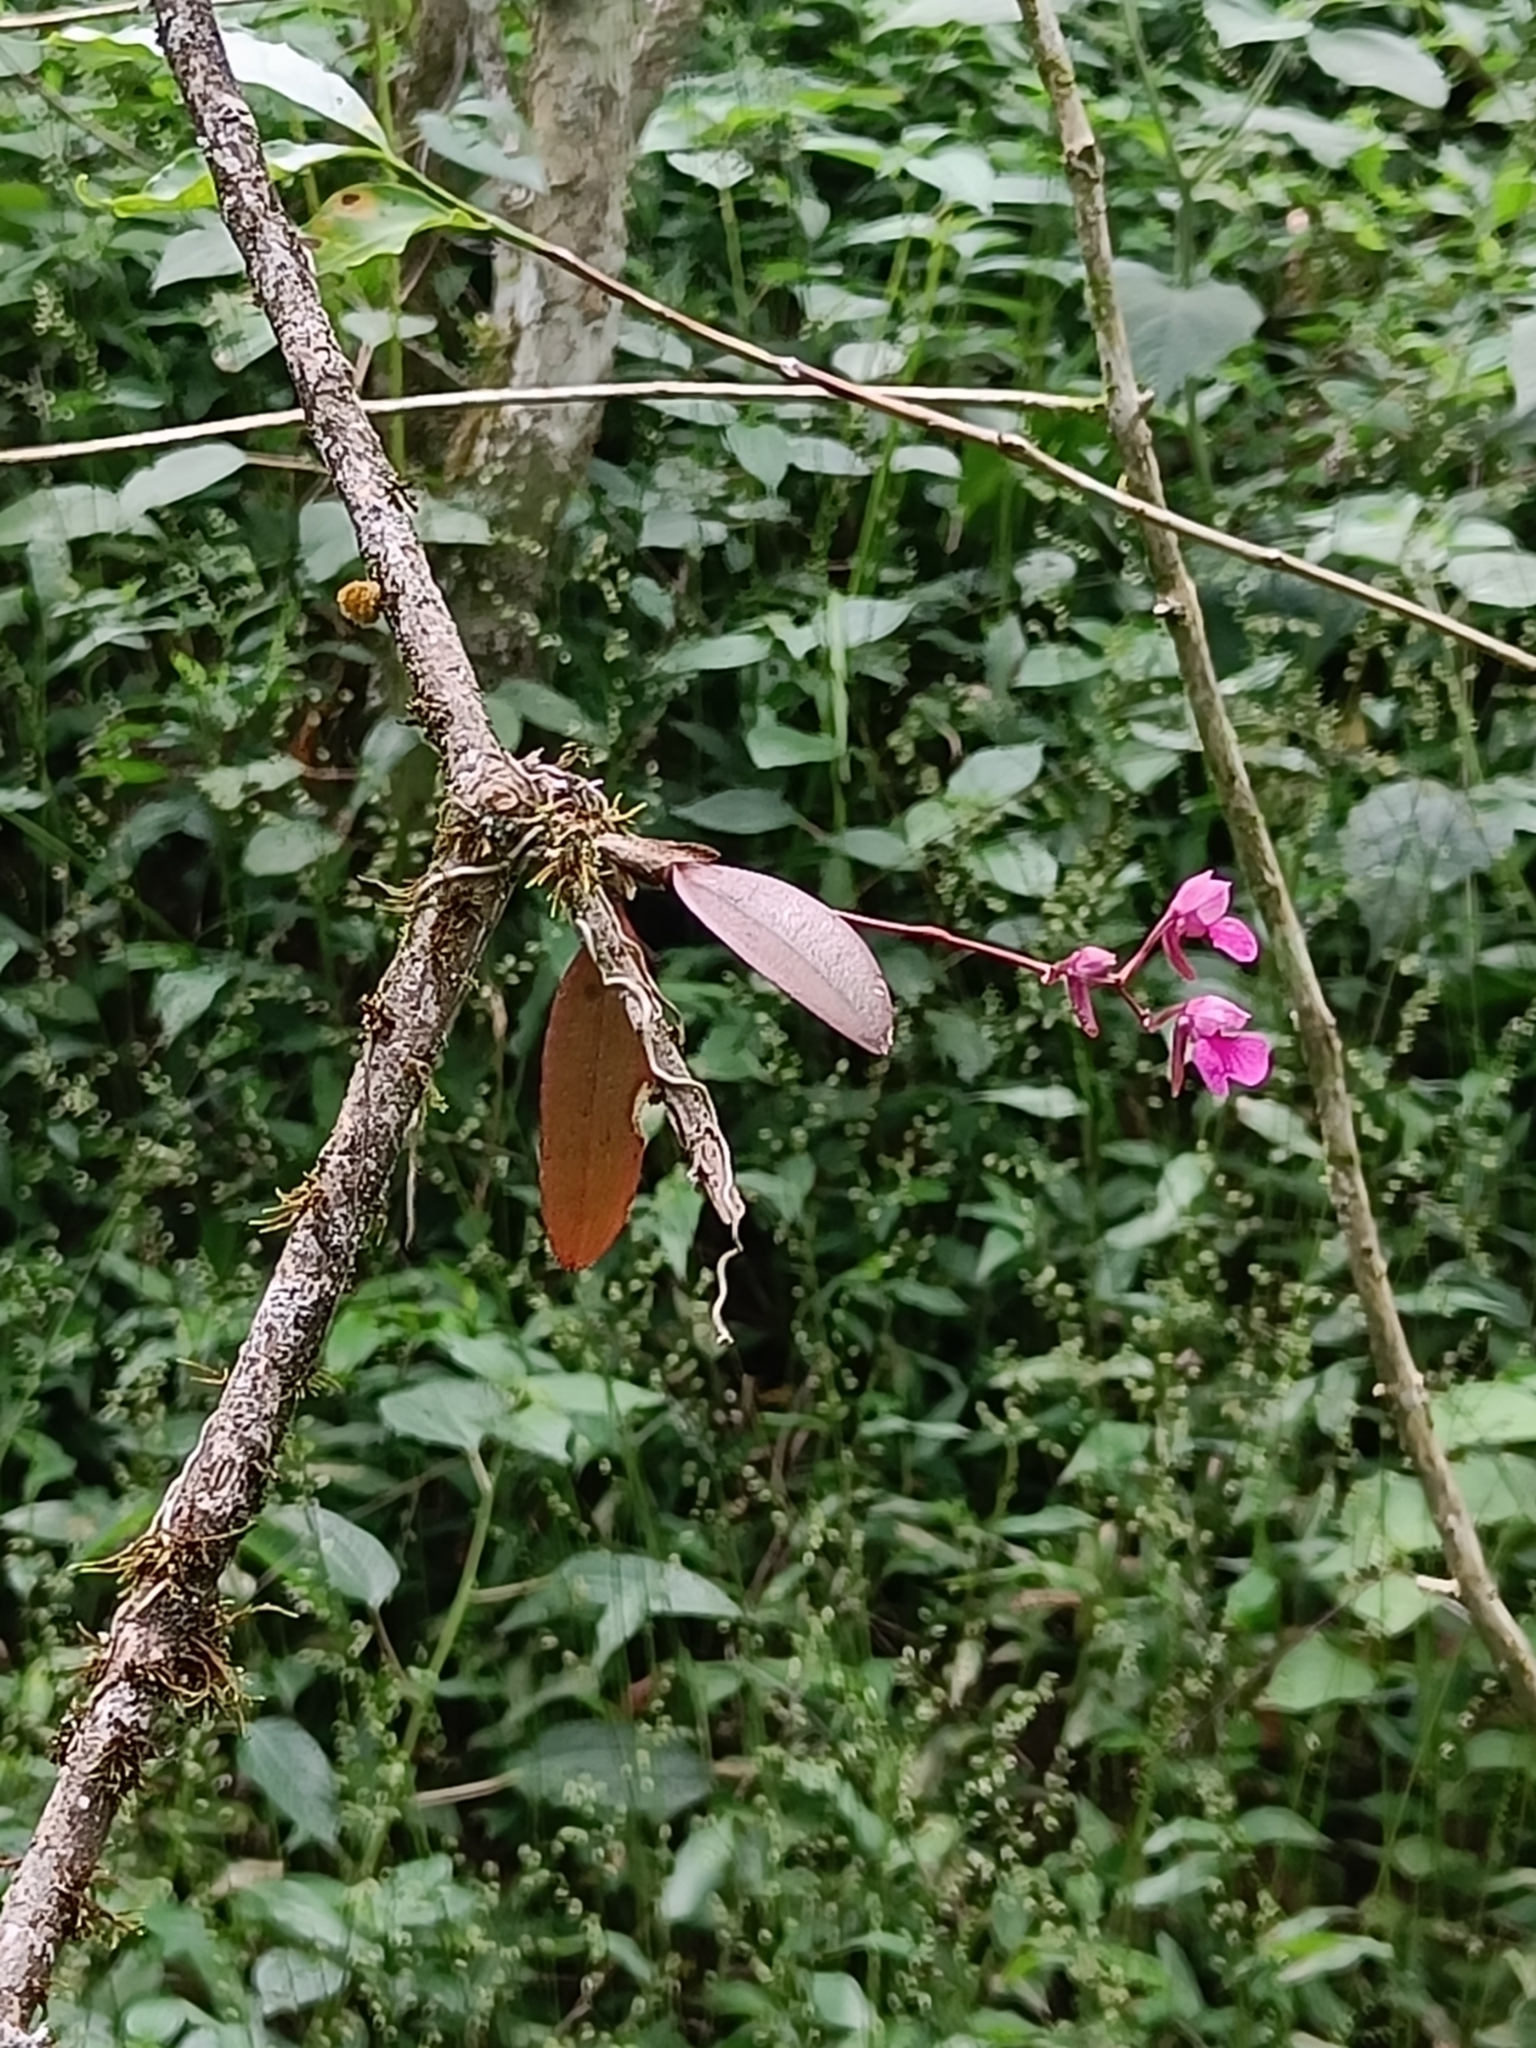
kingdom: Plantae
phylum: Tracheophyta
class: Liliopsida
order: Asparagales
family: Orchidaceae
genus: Comparettia
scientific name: Comparettia falcata
